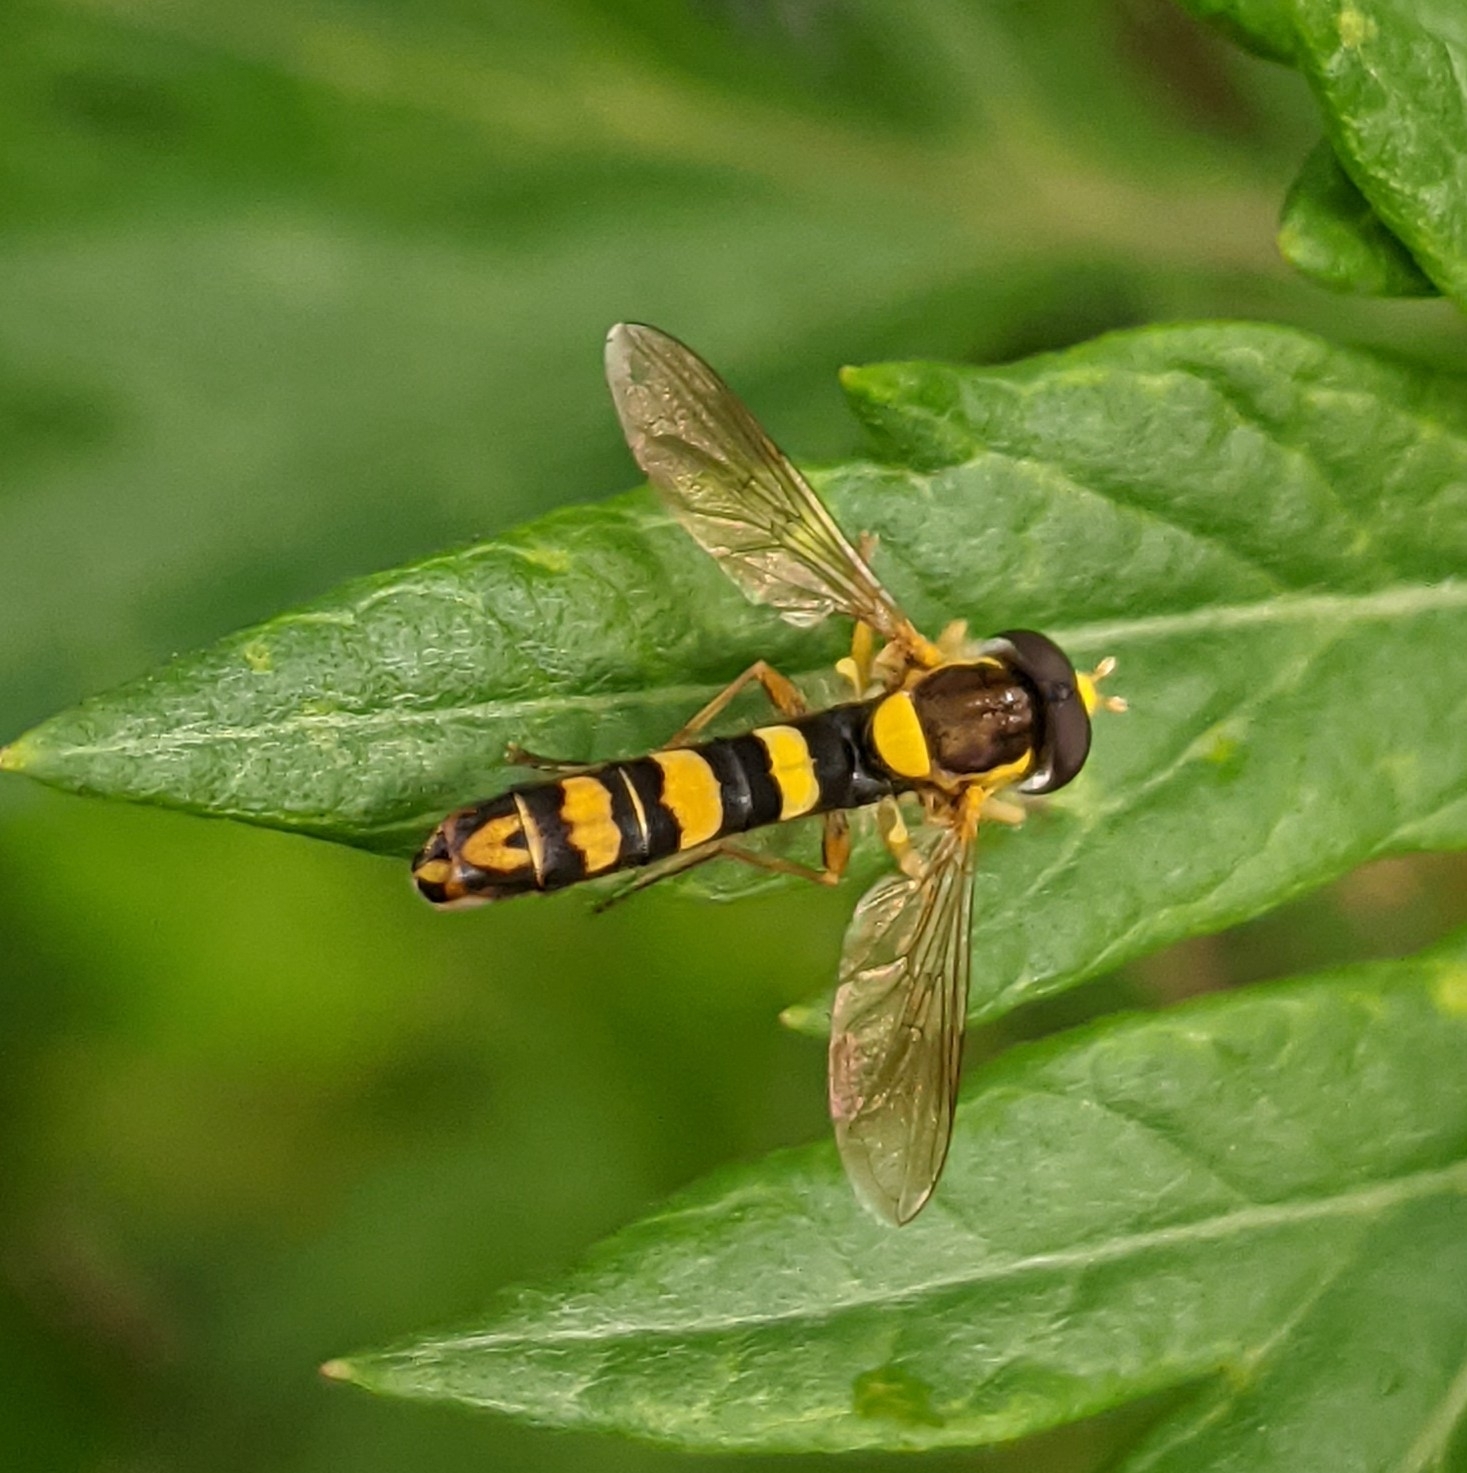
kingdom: Animalia
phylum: Arthropoda
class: Insecta
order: Diptera
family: Syrphidae
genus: Sphaerophoria
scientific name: Sphaerophoria scripta
